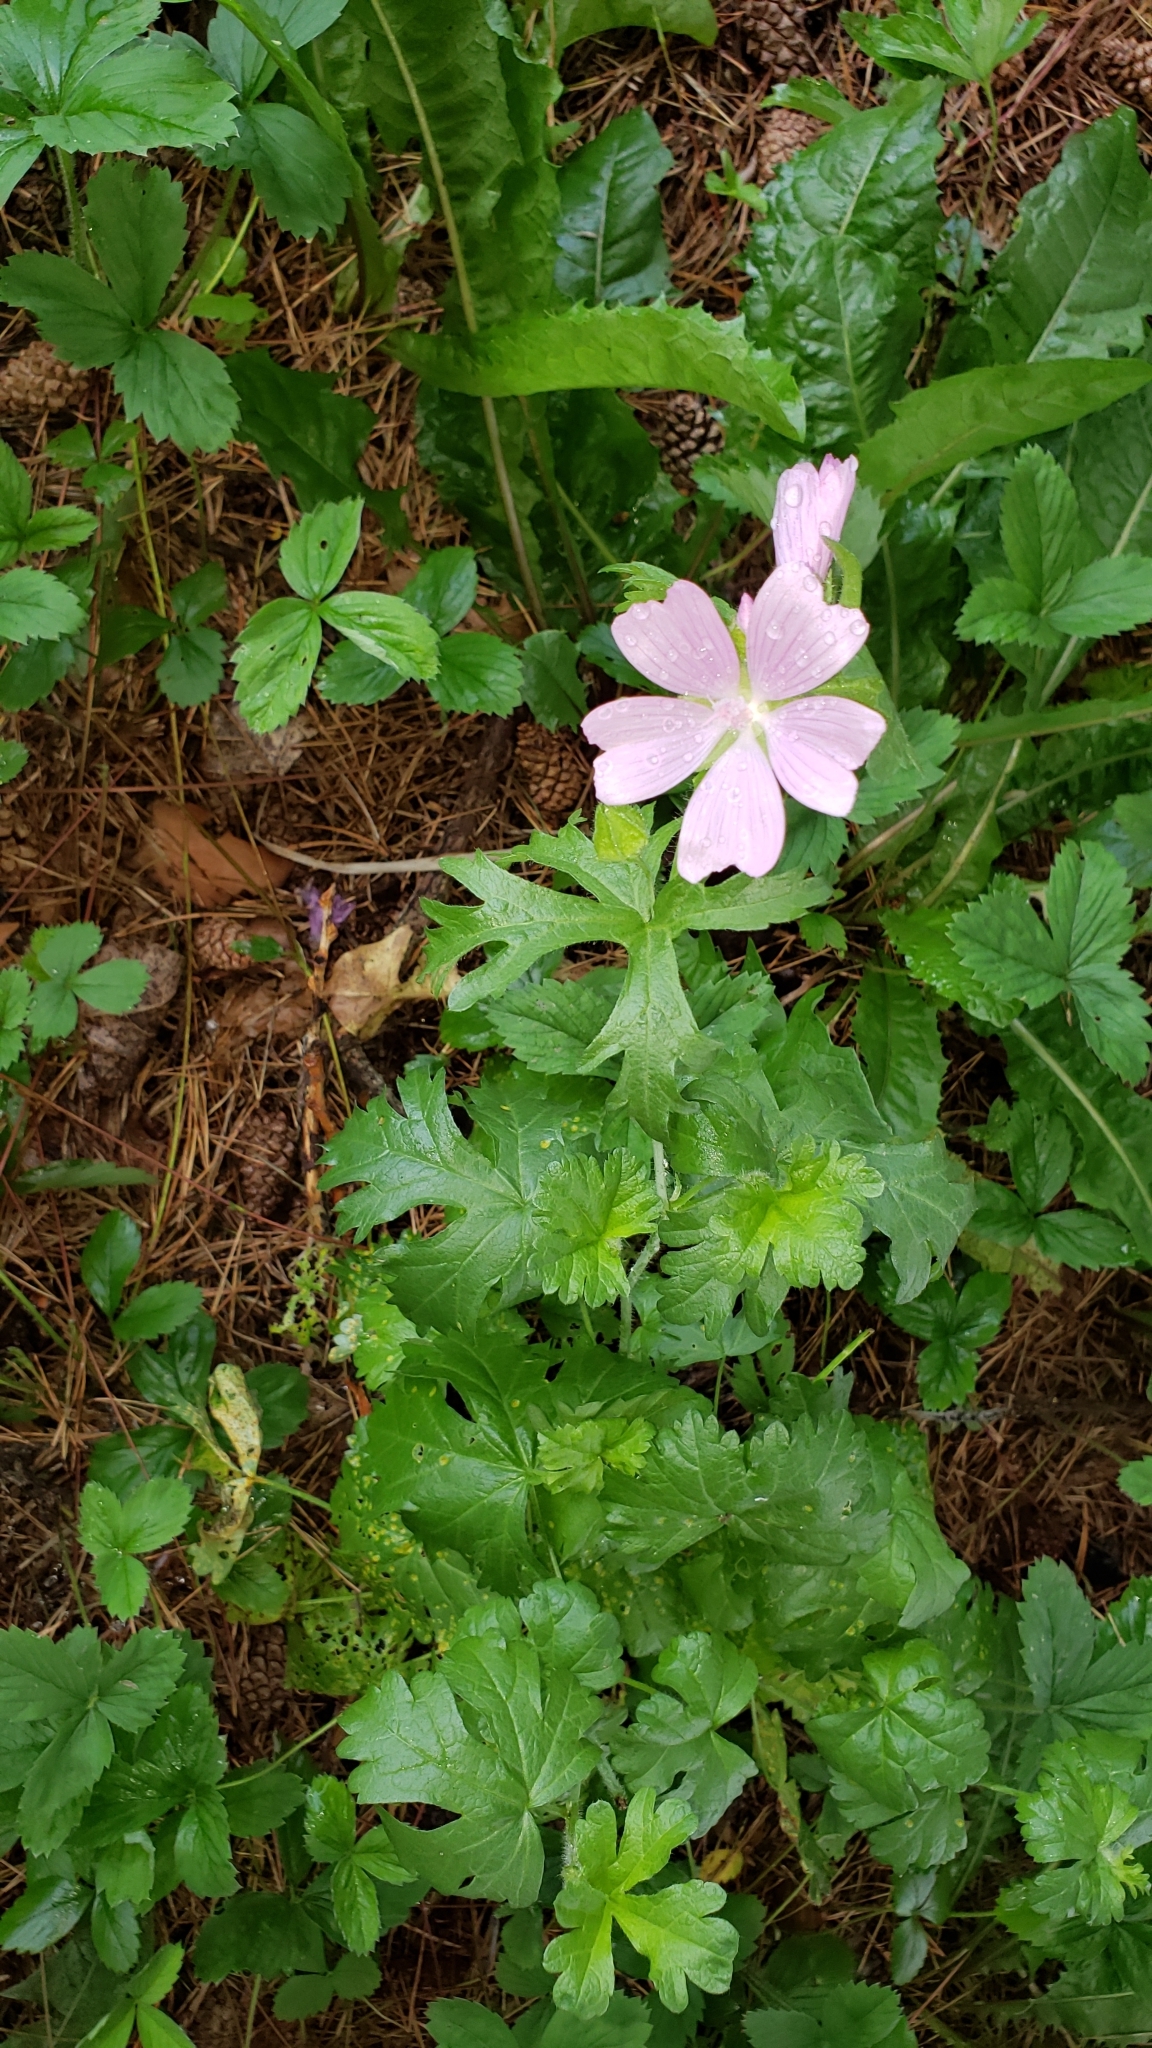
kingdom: Plantae
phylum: Tracheophyta
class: Magnoliopsida
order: Malvales
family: Malvaceae
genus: Malva
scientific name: Malva moschata
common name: Musk mallow
